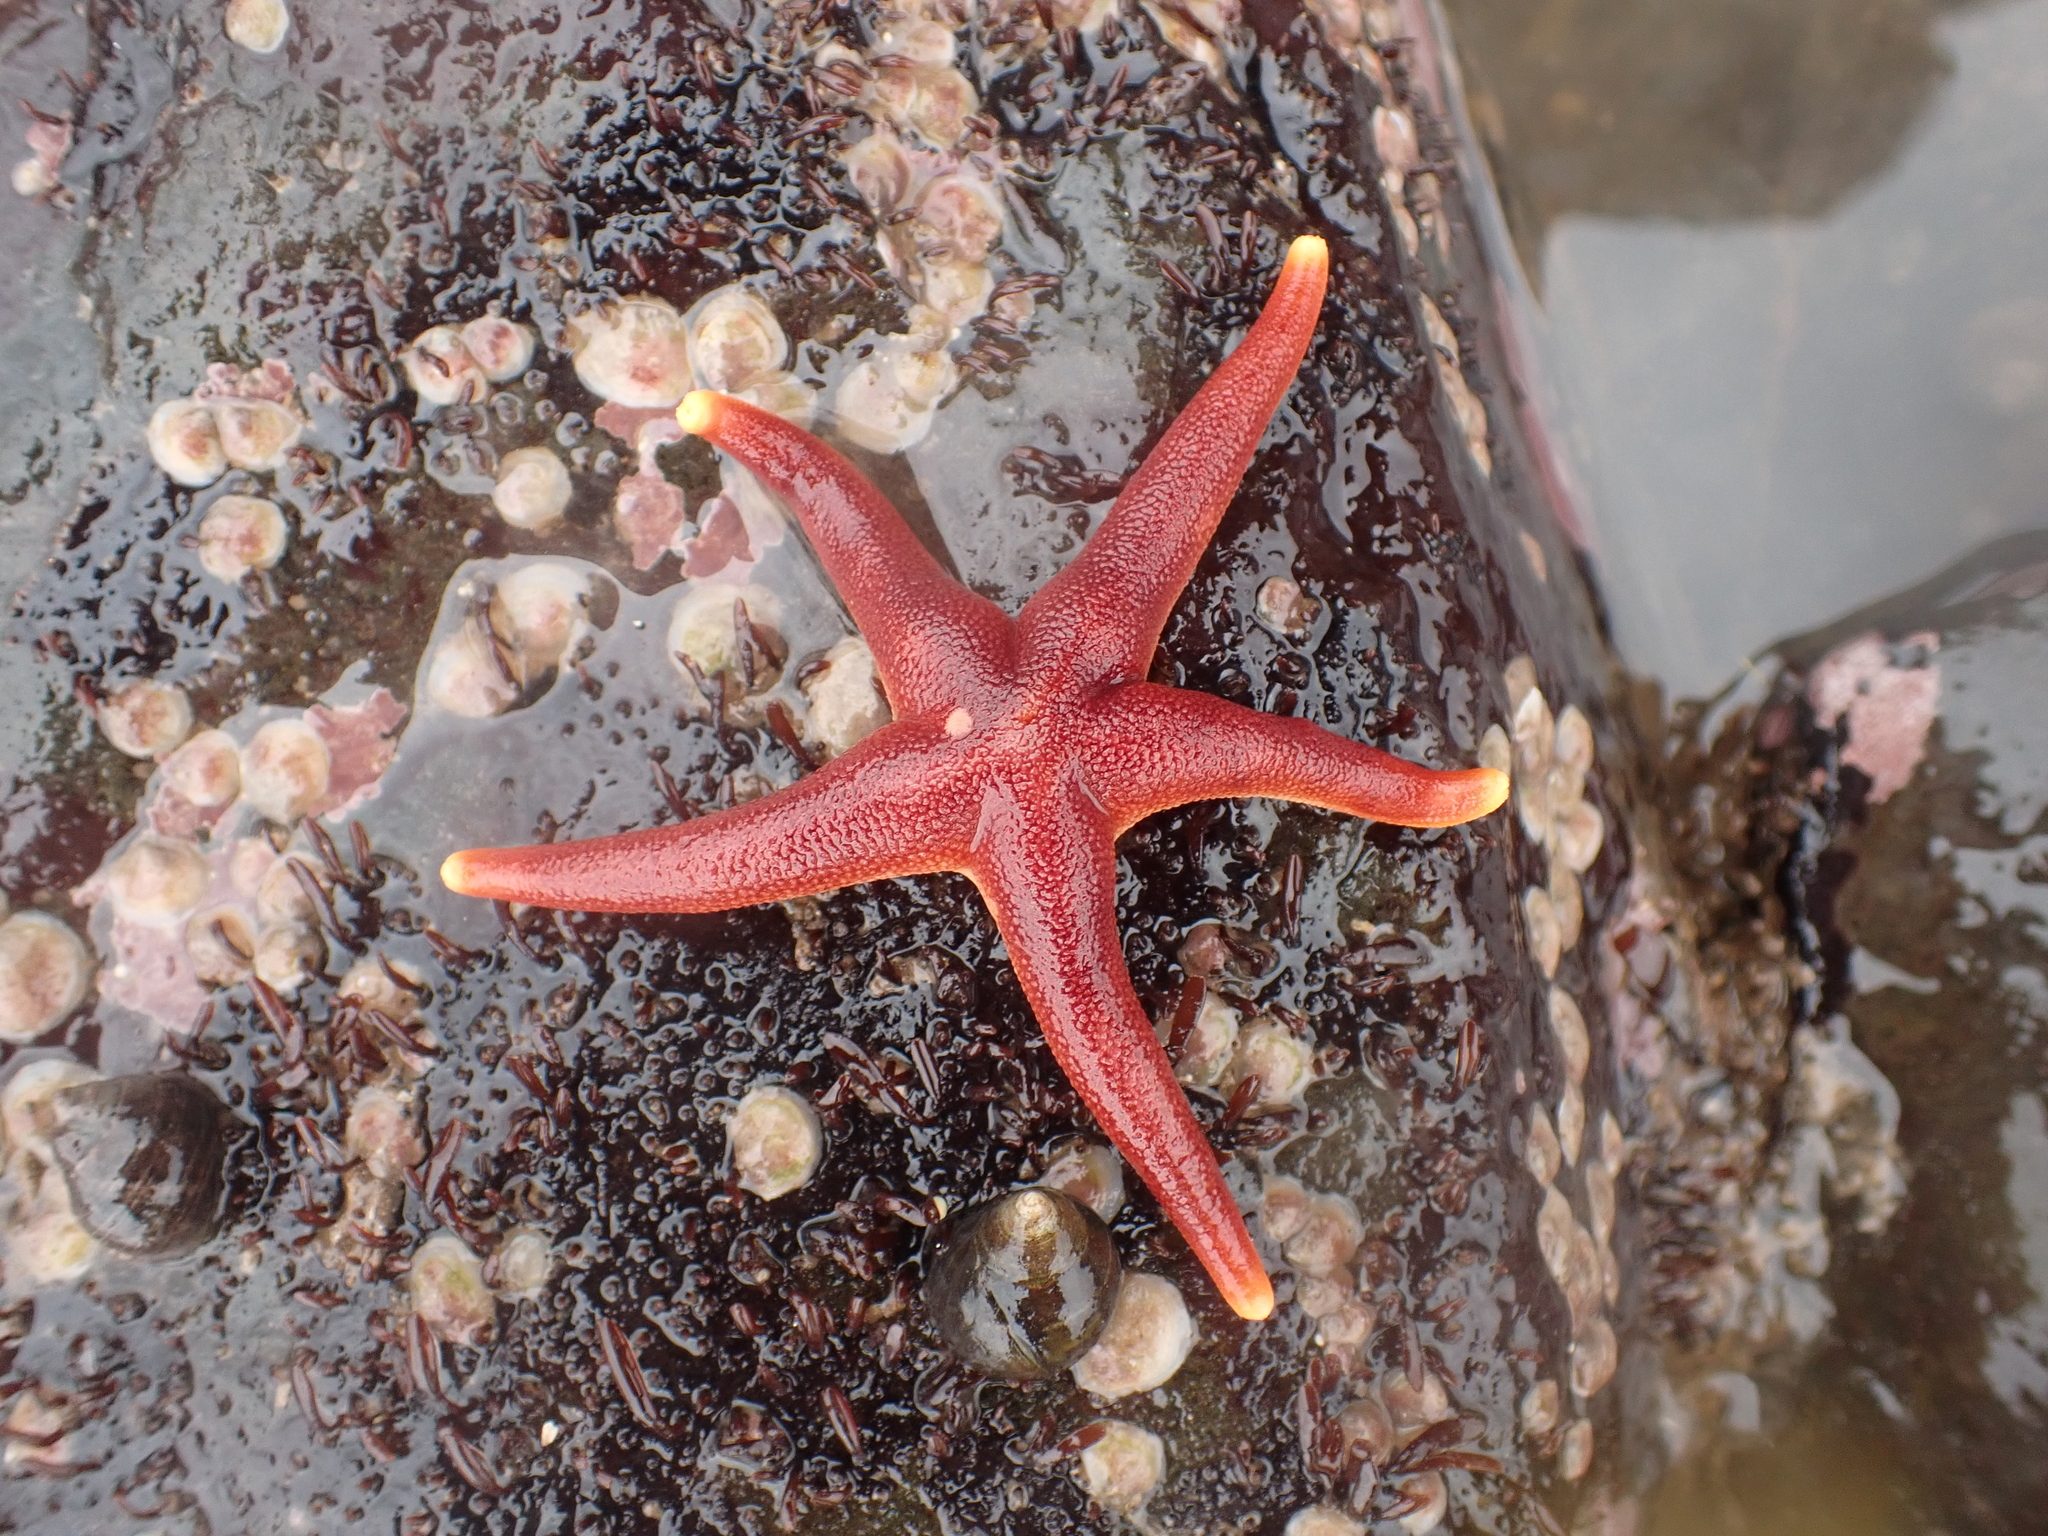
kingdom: Animalia
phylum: Echinodermata
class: Asteroidea
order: Spinulosida
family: Echinasteridae
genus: Henricia
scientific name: Henricia sanguinolenta
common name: Blood star
